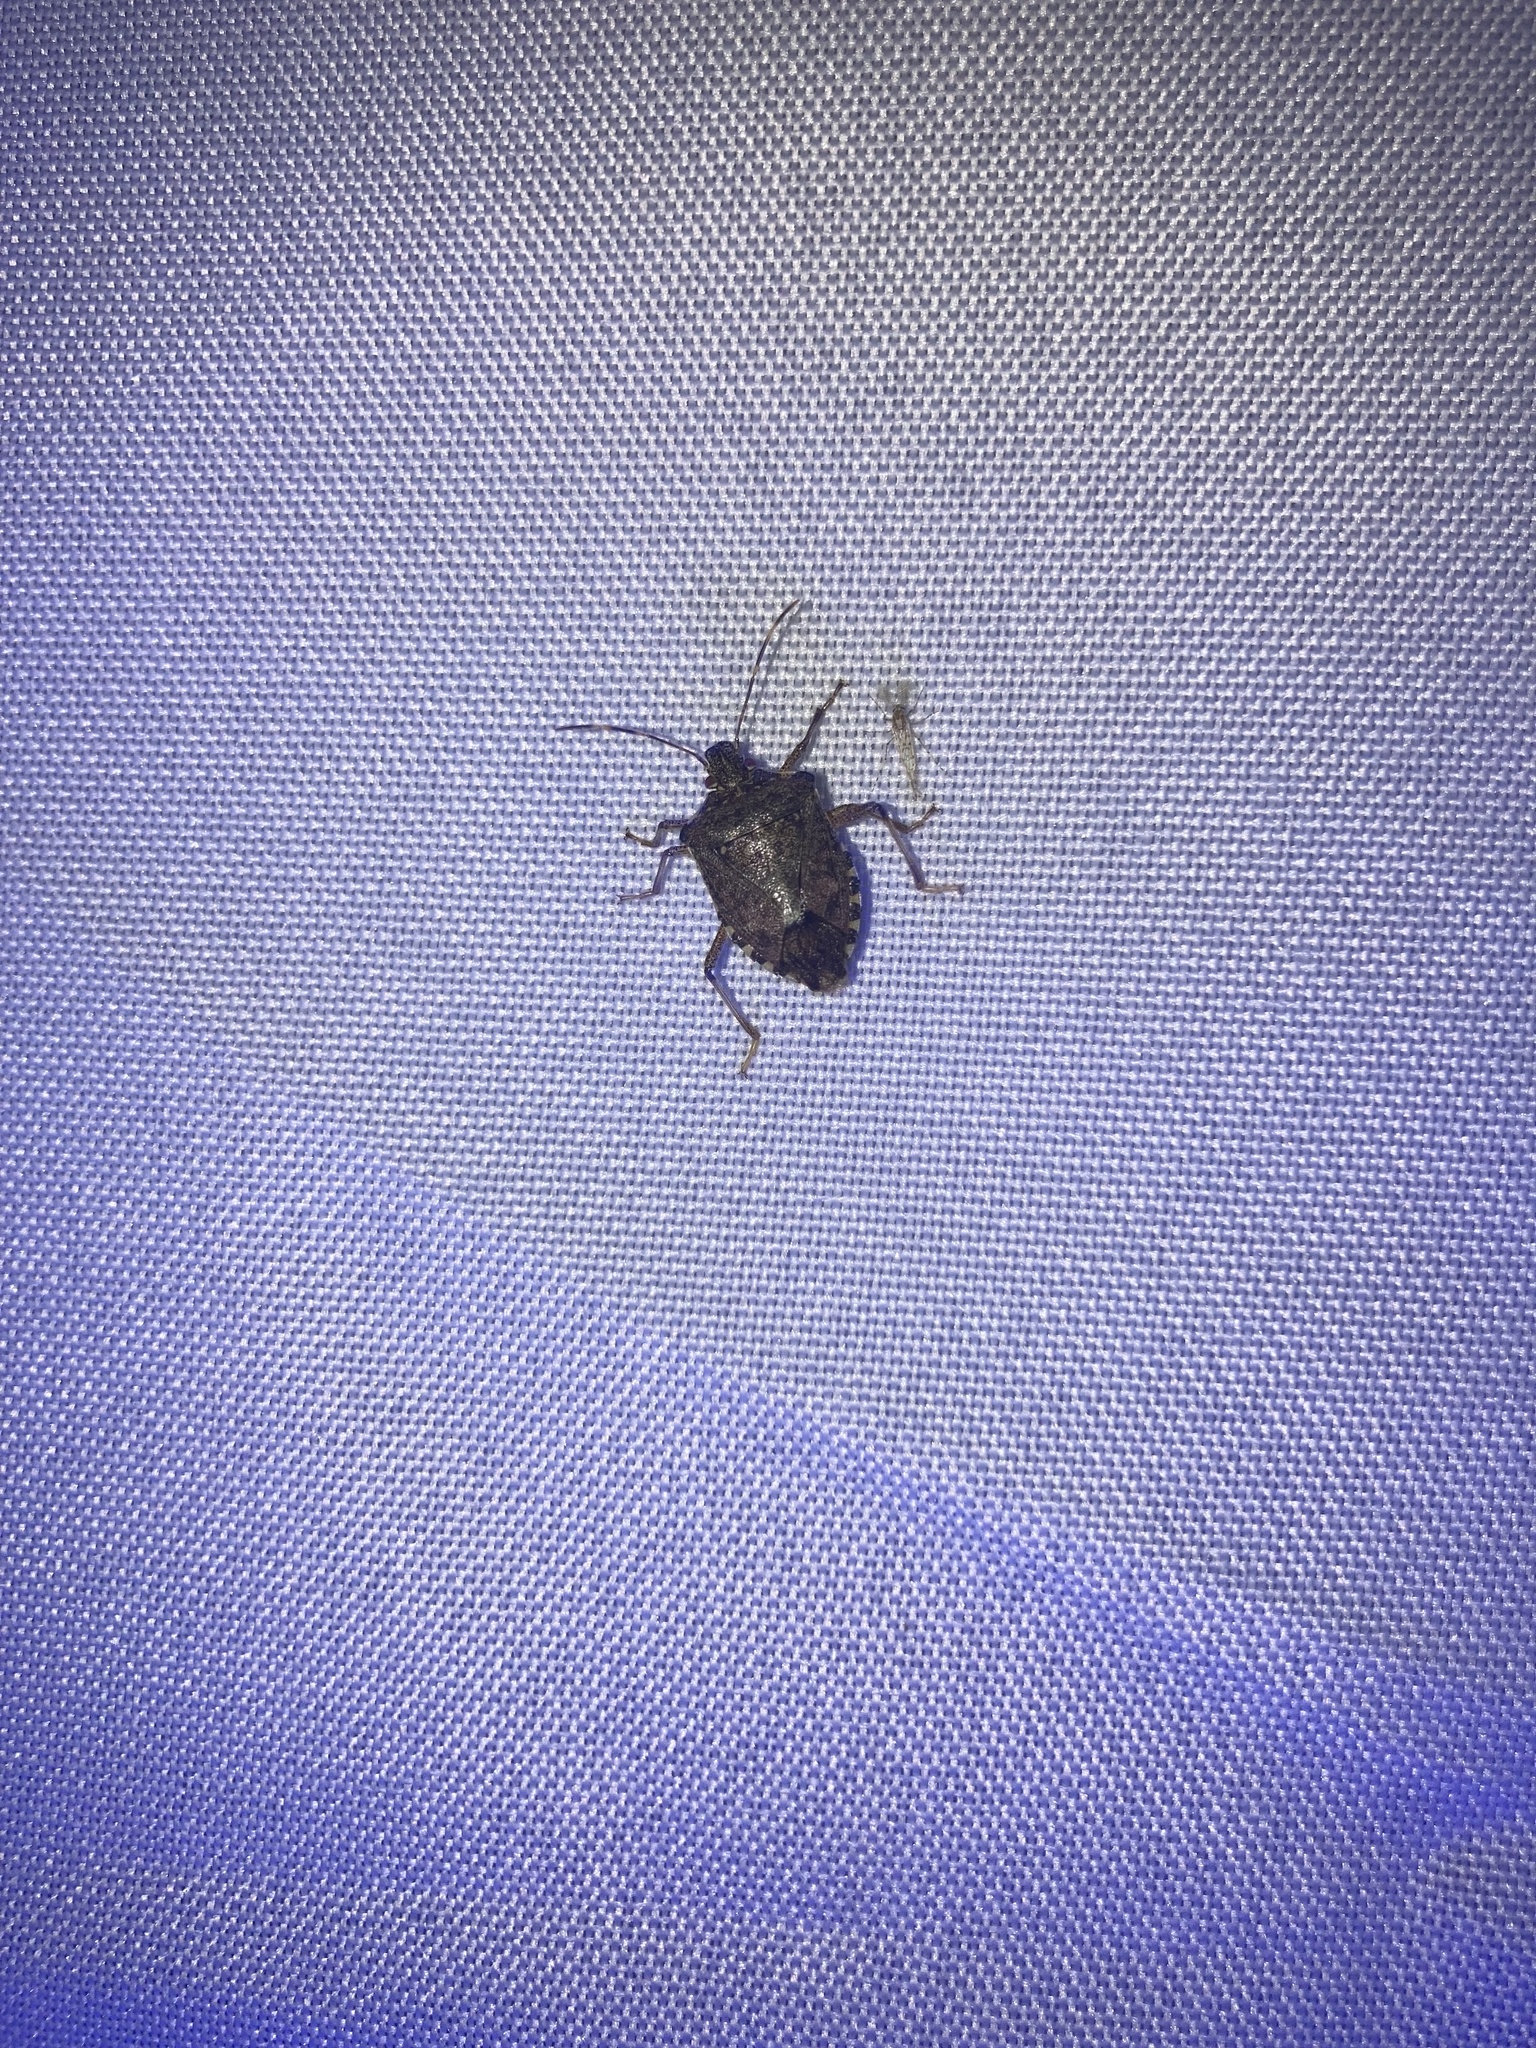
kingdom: Animalia
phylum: Arthropoda
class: Insecta
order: Hemiptera
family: Pentatomidae
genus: Halyomorpha
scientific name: Halyomorpha halys
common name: Brown marmorated stink bug
